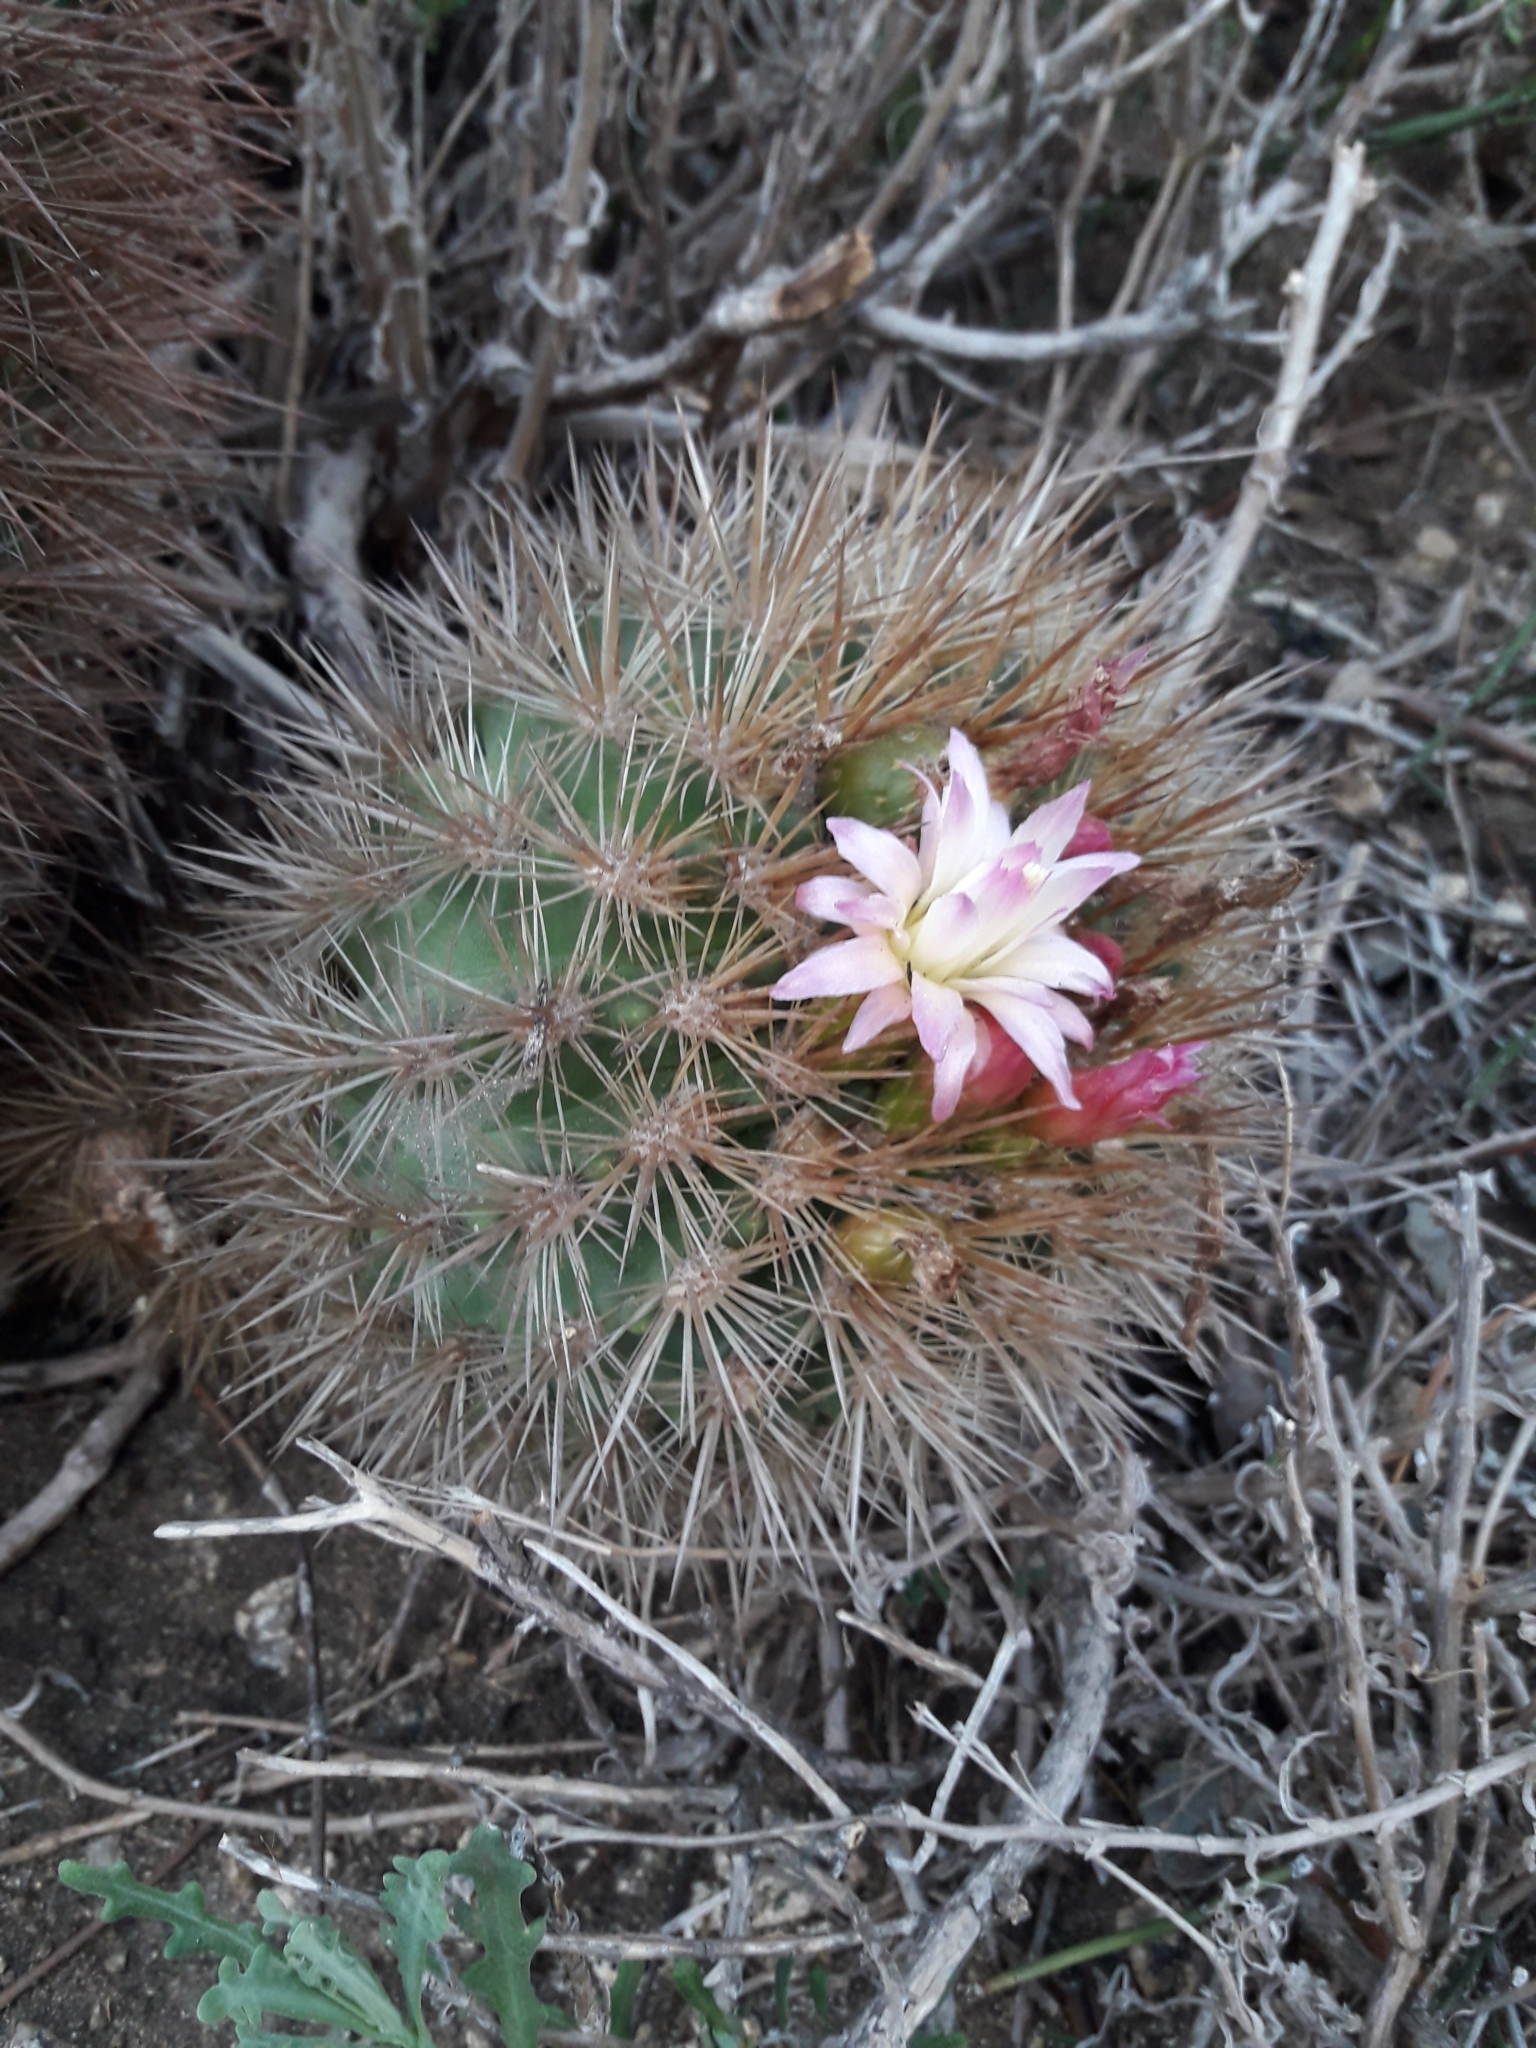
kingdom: Plantae
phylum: Tracheophyta
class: Magnoliopsida
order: Caryophyllales
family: Cactaceae
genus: Eriosyce
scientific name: Eriosyce subgibbosa
